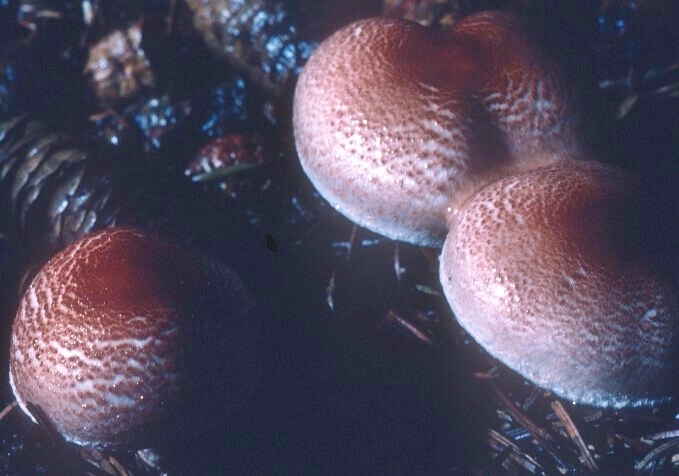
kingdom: Fungi
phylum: Basidiomycota
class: Agaricomycetes
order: Agaricales
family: Agaricaceae
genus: Lepiota
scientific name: Lepiota subincarnata
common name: Fatal dapperling
